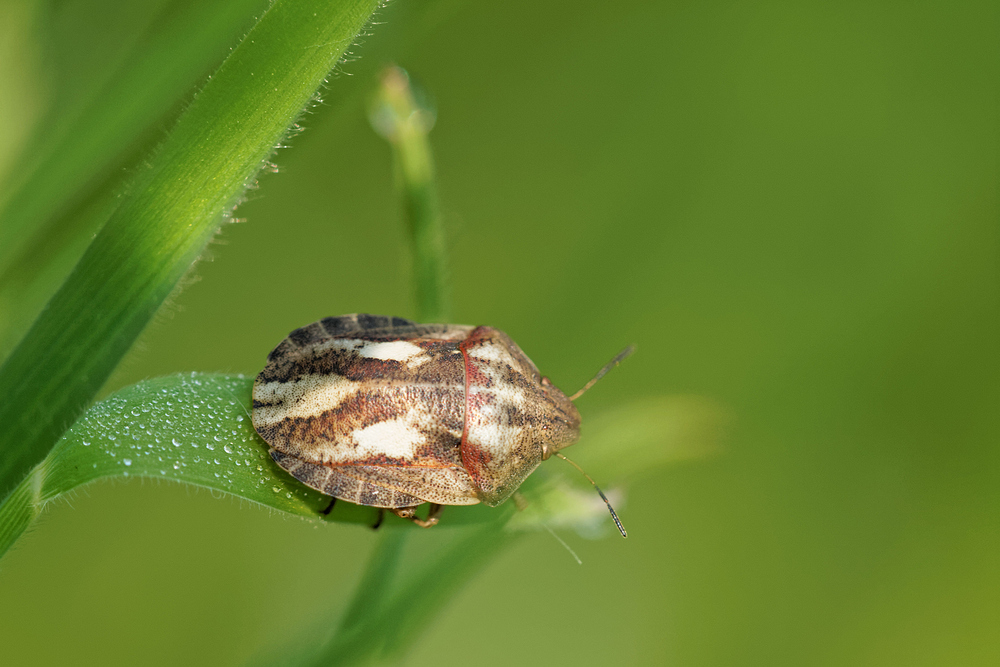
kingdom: Animalia
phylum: Arthropoda
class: Insecta
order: Hemiptera
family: Scutelleridae
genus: Eurygaster
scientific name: Eurygaster testudinaria
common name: Tortoise bug
